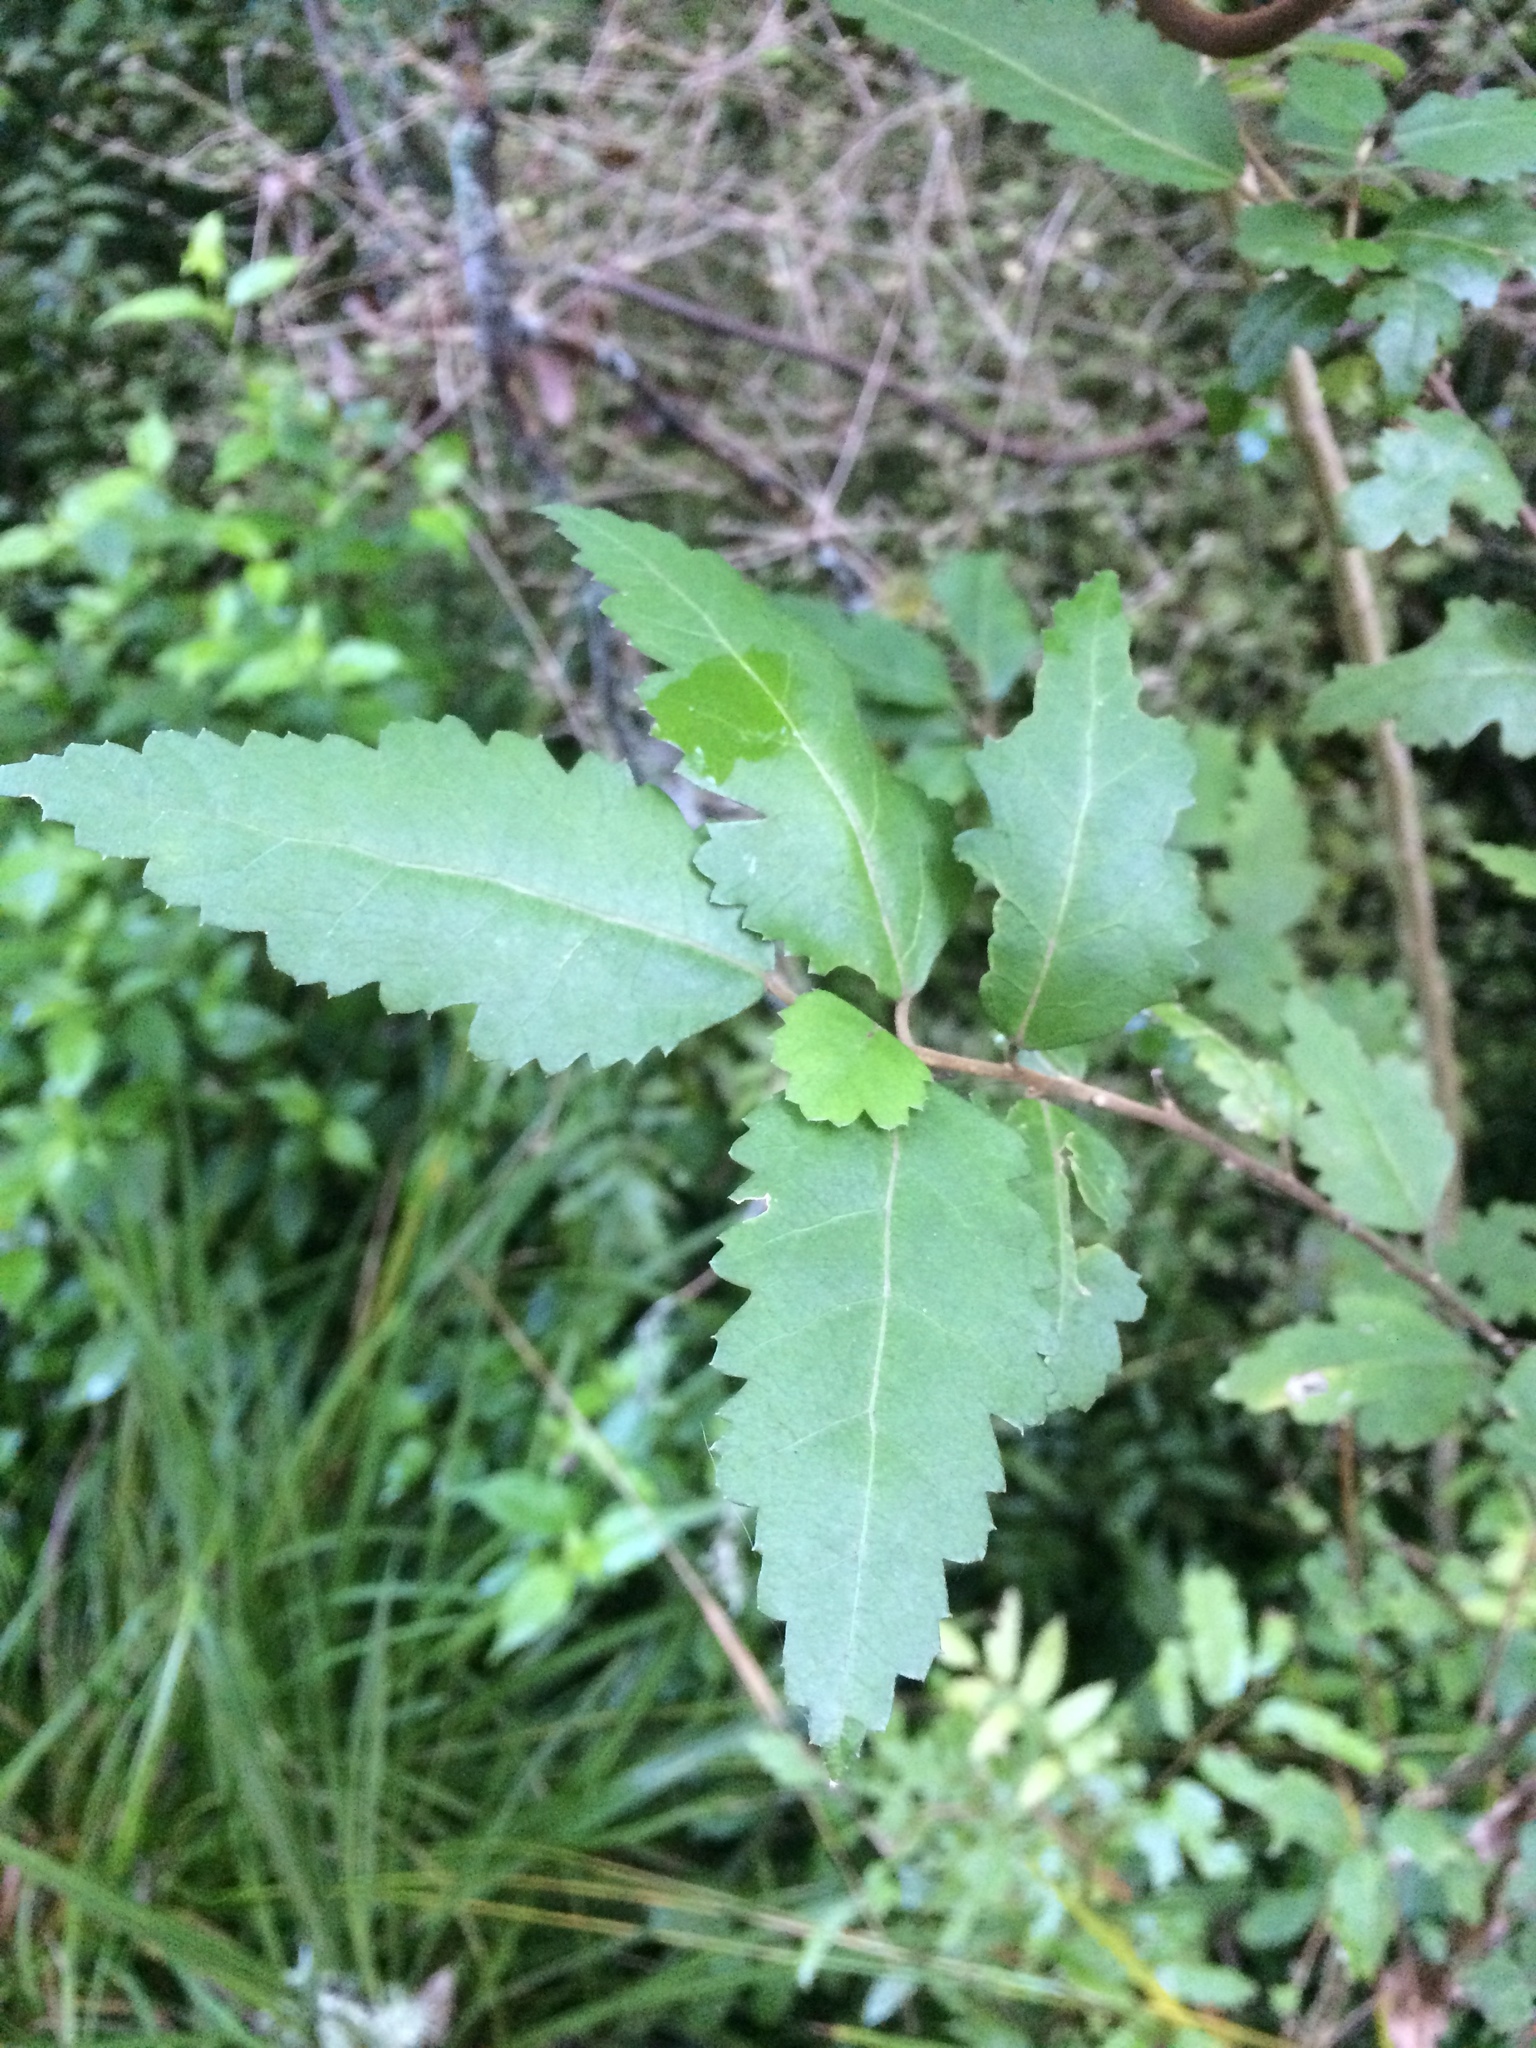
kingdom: Plantae
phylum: Tracheophyta
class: Magnoliopsida
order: Malvales
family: Malvaceae
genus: Hoheria
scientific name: Hoheria sexstylosa
